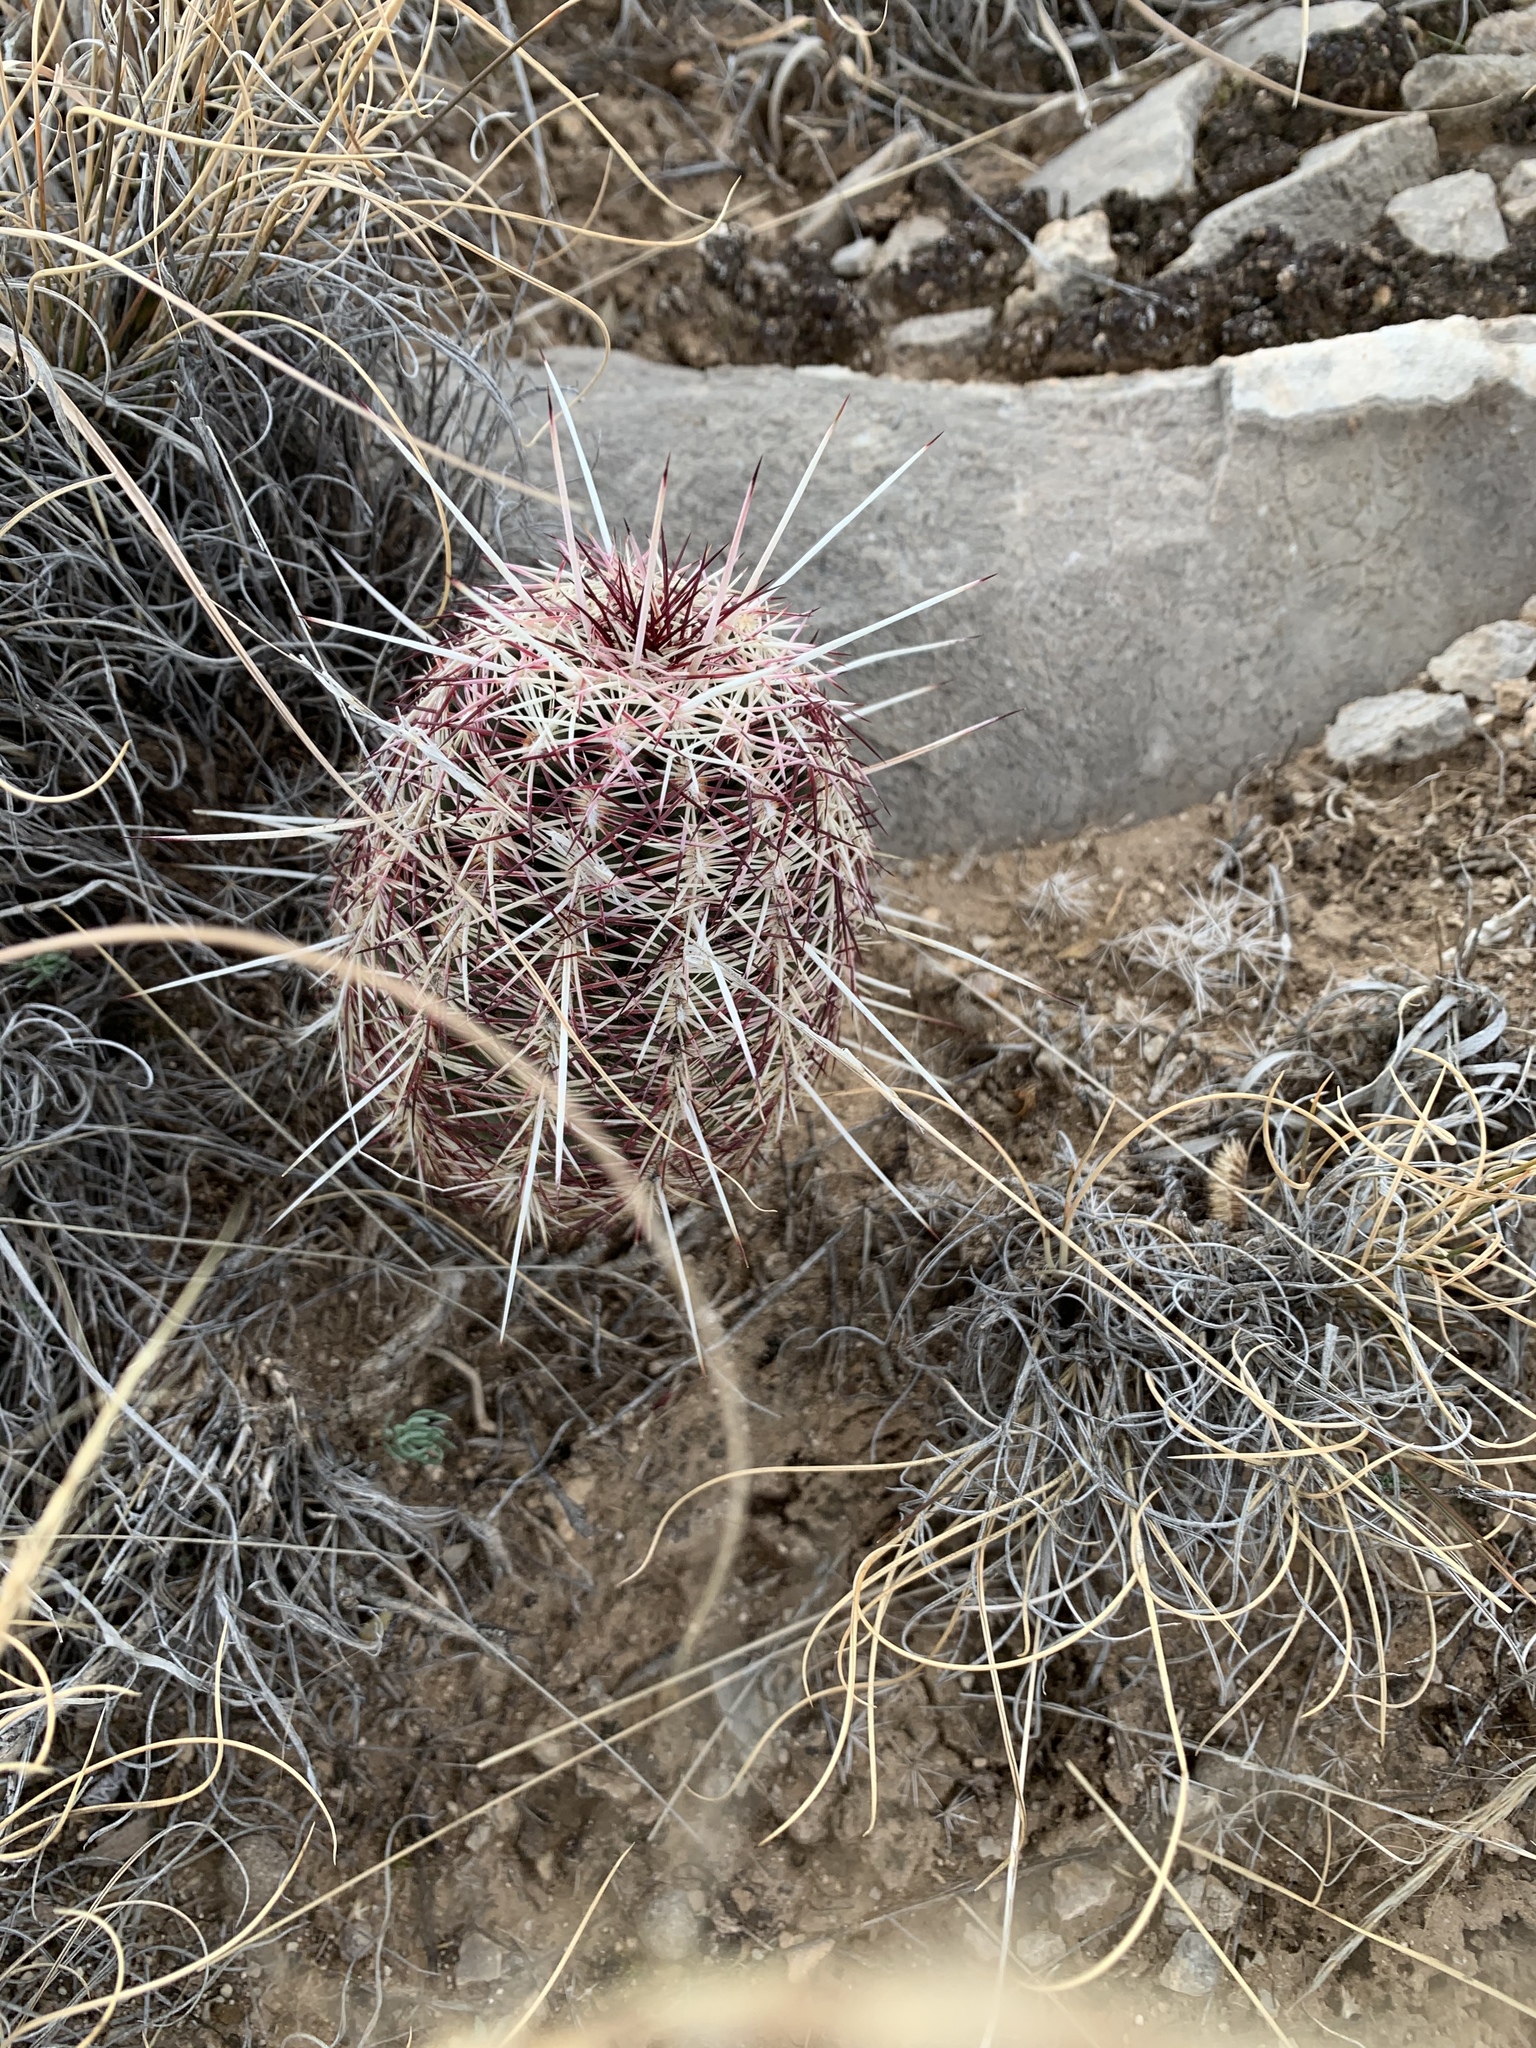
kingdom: Plantae
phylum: Tracheophyta
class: Magnoliopsida
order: Caryophyllales
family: Cactaceae
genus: Echinocereus
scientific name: Echinocereus viridiflorus
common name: Nylon hedgehog cactus
